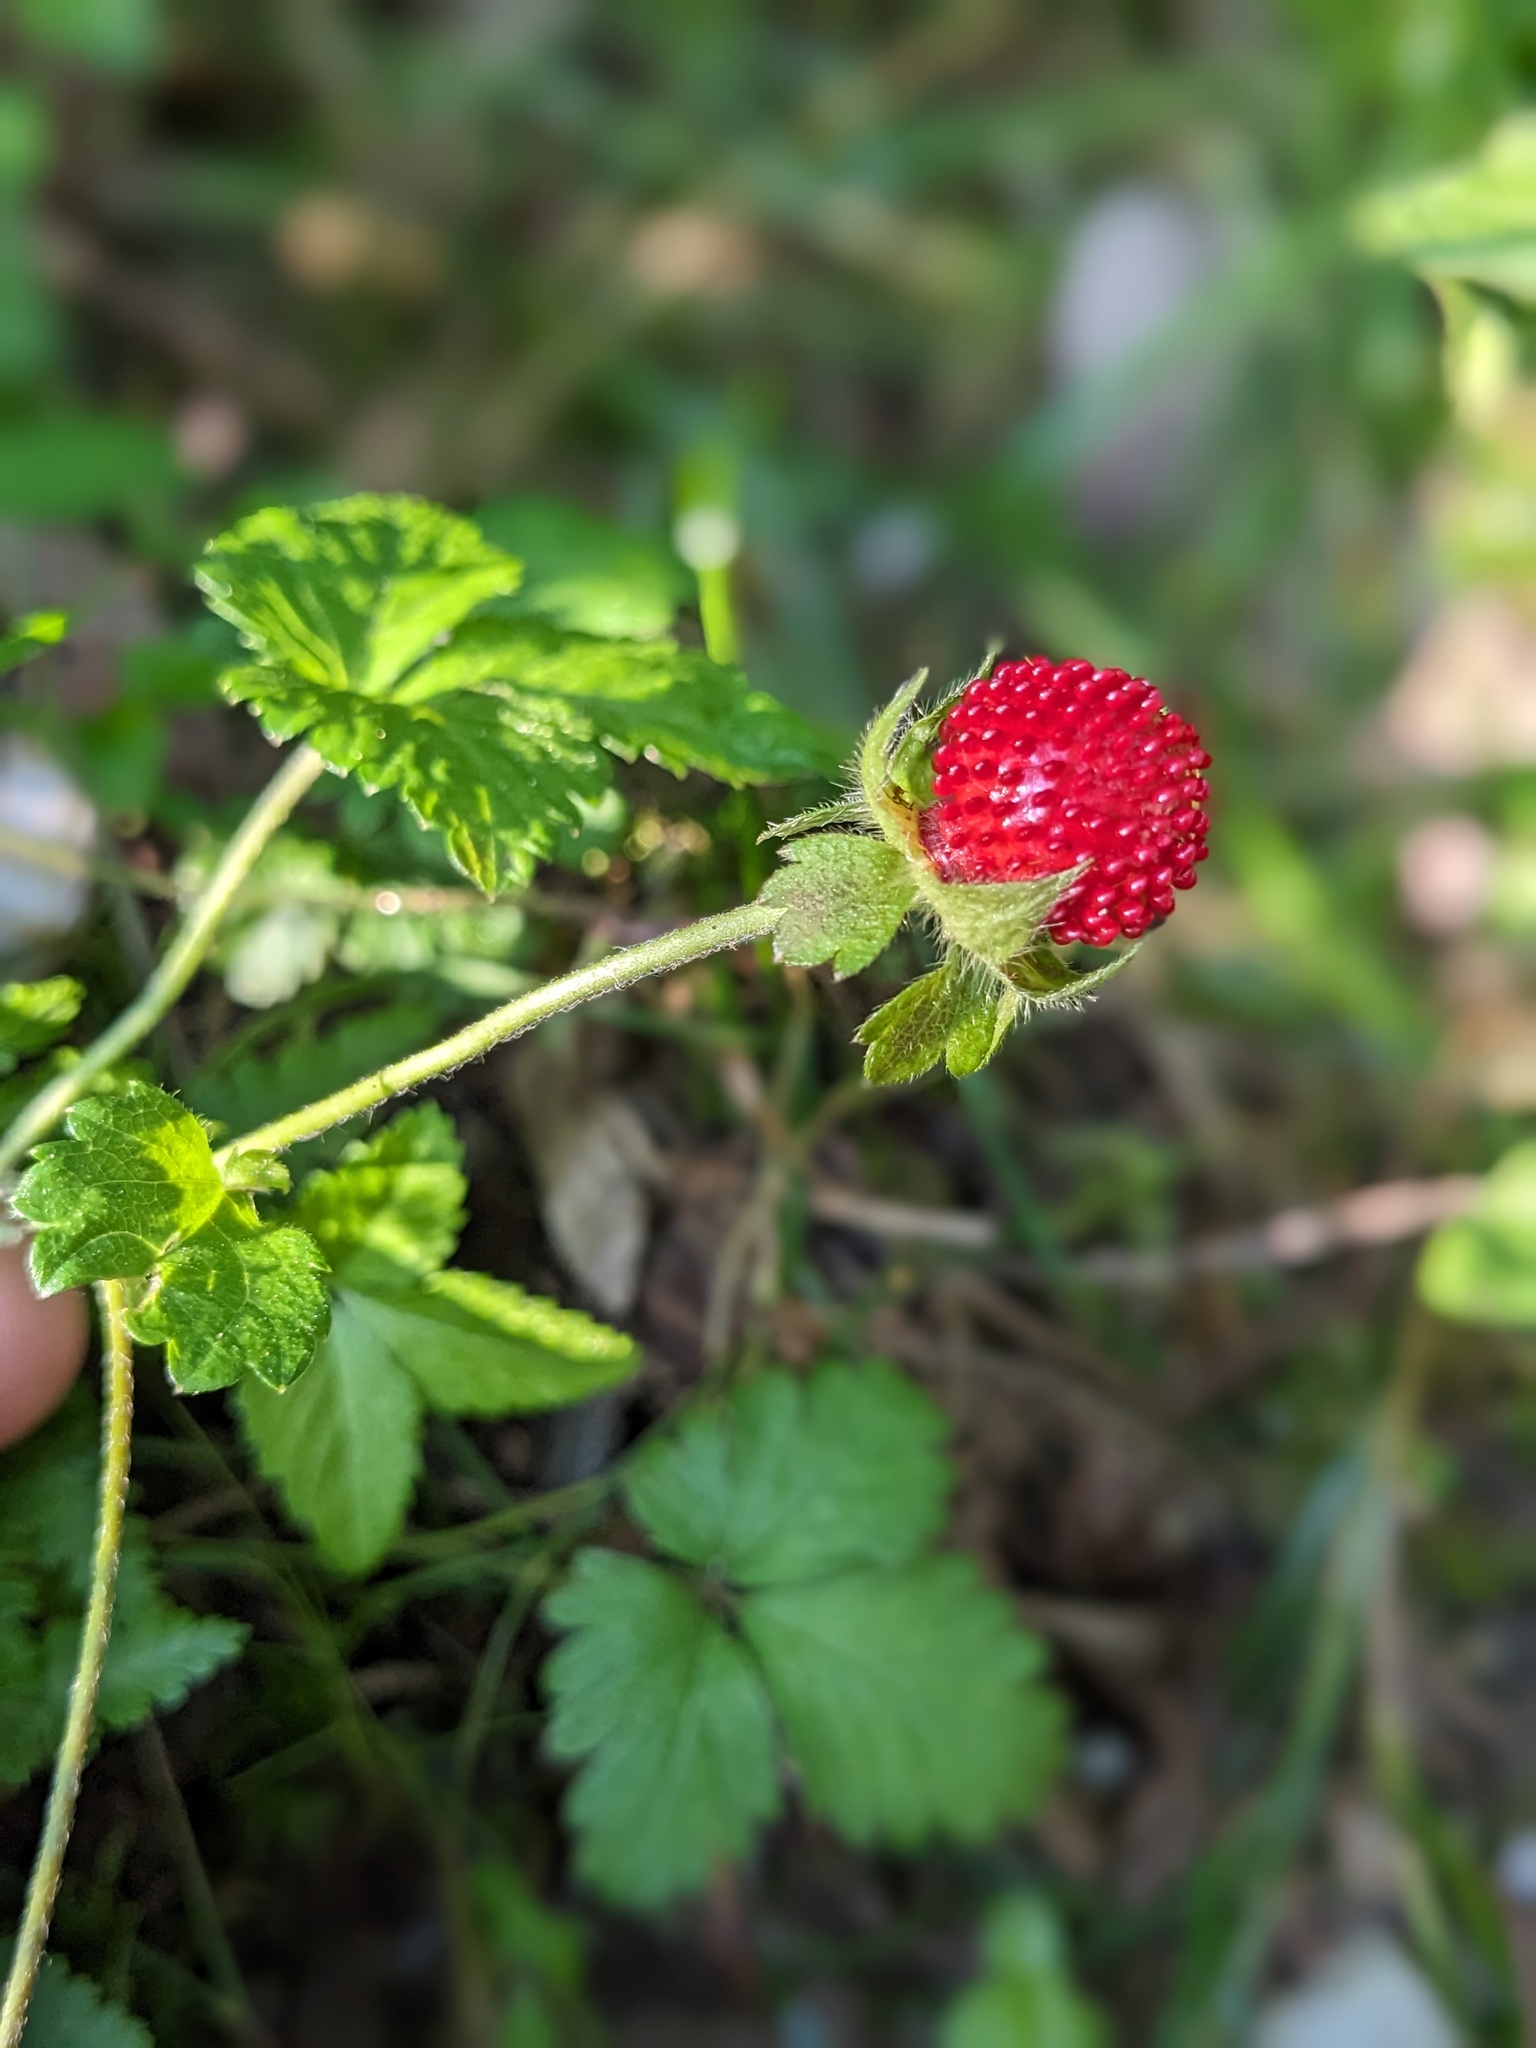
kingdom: Plantae
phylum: Tracheophyta
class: Magnoliopsida
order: Rosales
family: Rosaceae
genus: Potentilla
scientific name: Potentilla indica
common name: Yellow-flowered strawberry
